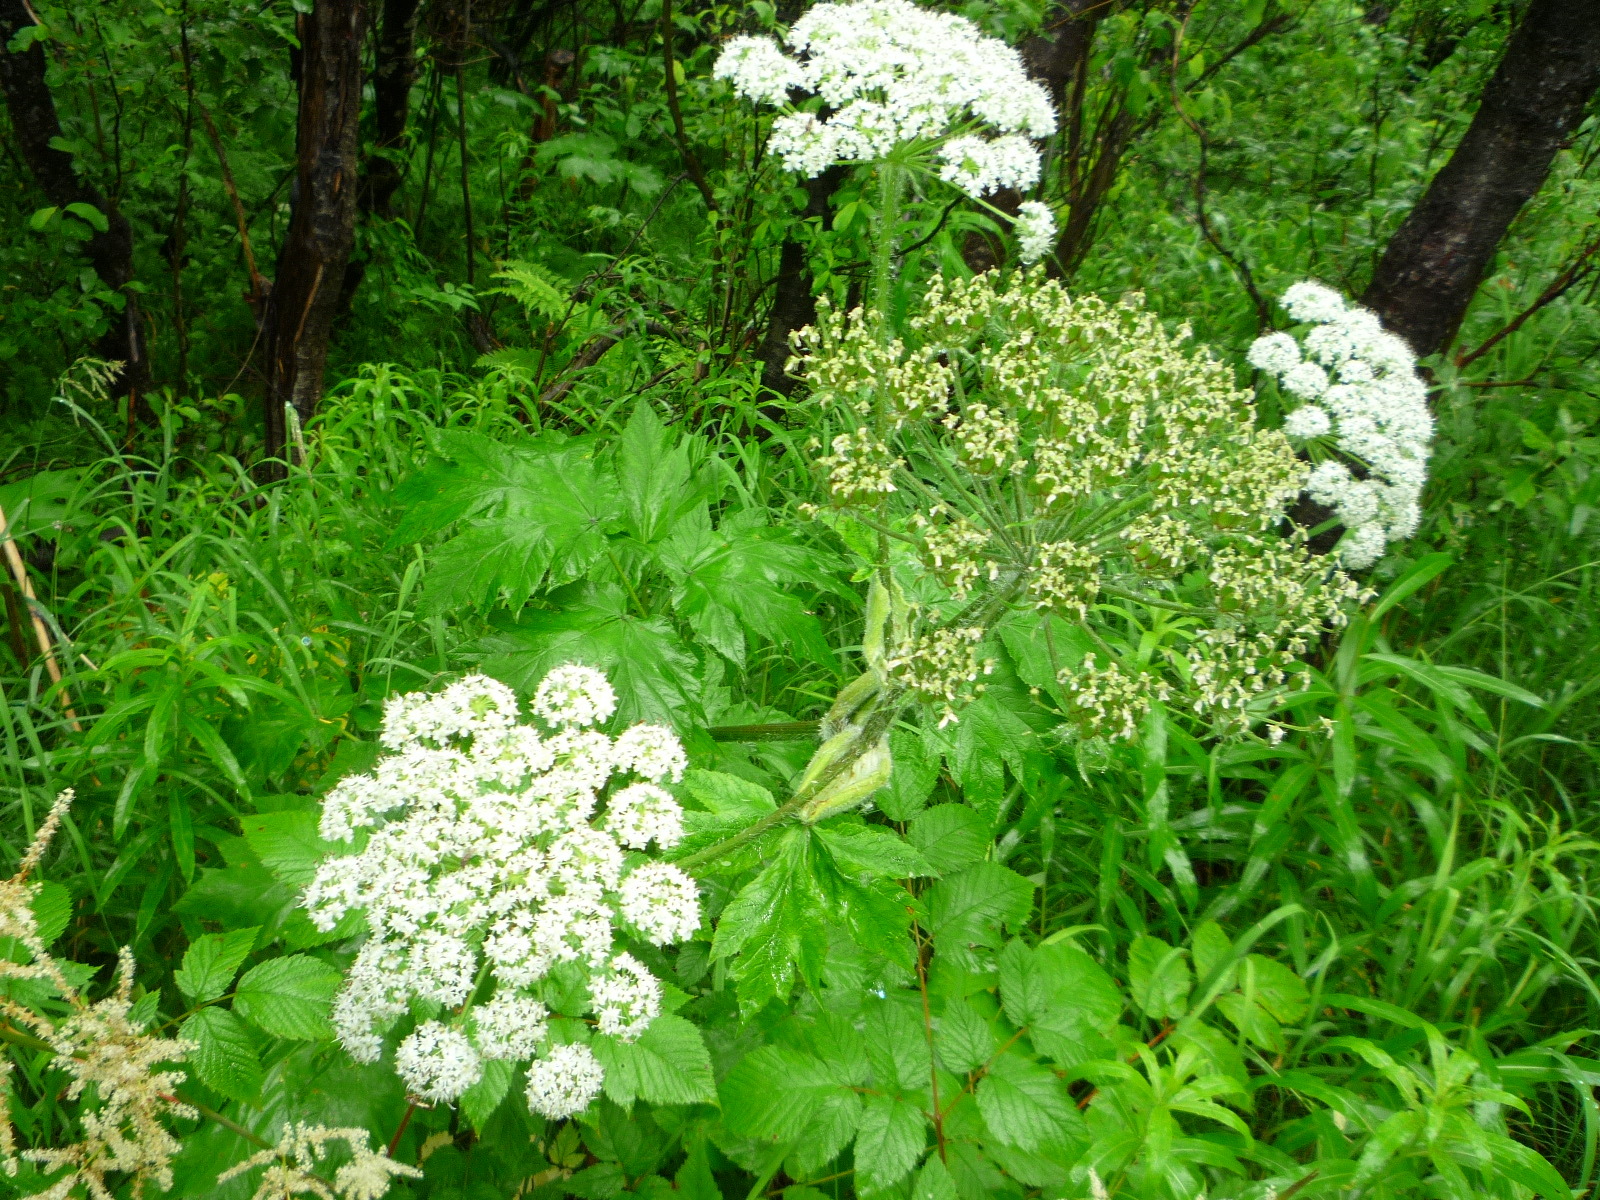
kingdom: Plantae
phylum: Tracheophyta
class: Magnoliopsida
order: Apiales
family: Apiaceae
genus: Heracleum
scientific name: Heracleum maximum
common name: American cow parsnip
